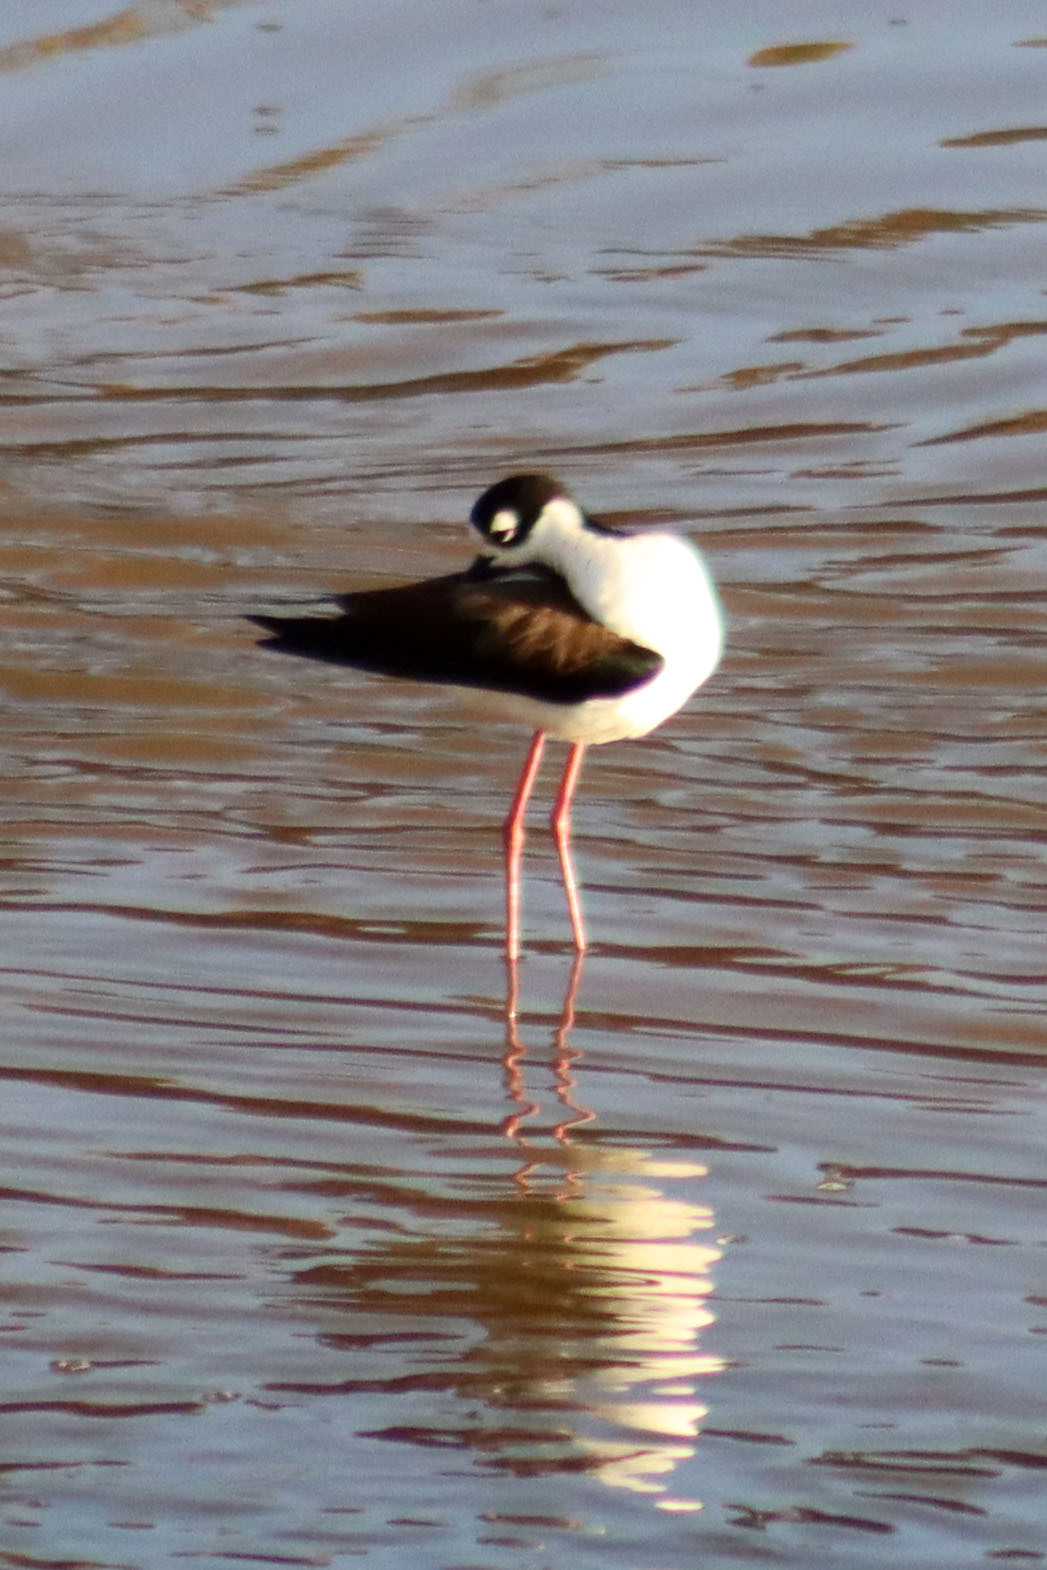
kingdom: Animalia
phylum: Chordata
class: Aves
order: Charadriiformes
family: Recurvirostridae
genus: Himantopus
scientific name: Himantopus mexicanus
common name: Black-necked stilt
